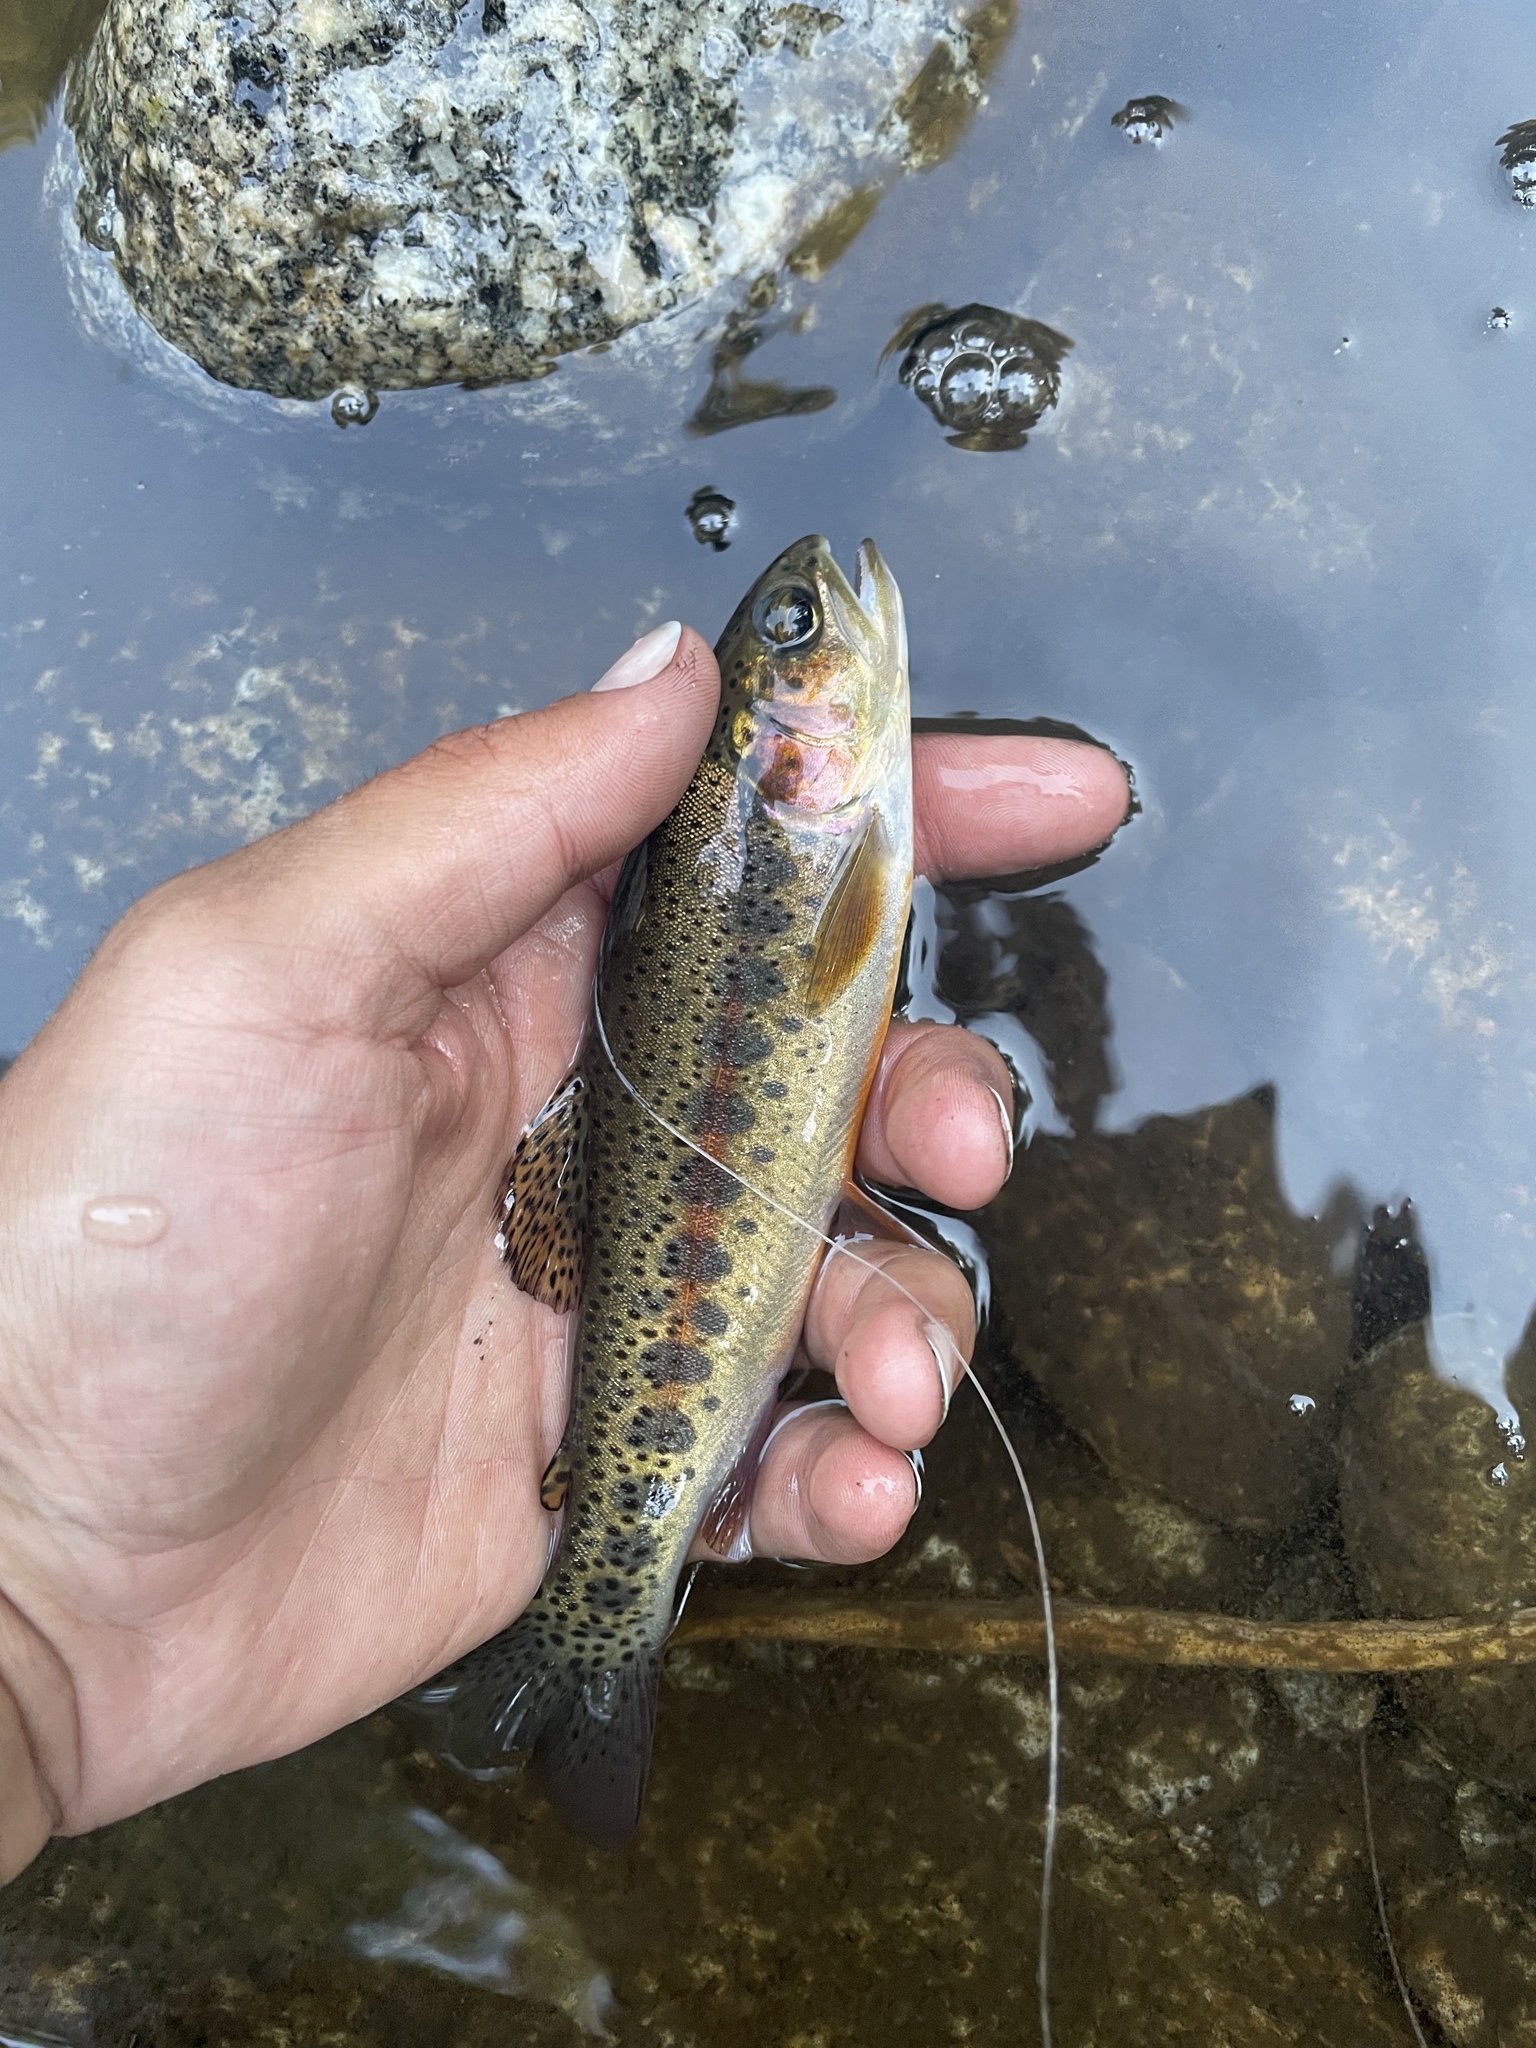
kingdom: Animalia
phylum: Chordata
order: Salmoniformes
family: Salmonidae
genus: Oncorhynchus
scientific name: Oncorhynchus mykiss
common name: Rainbow trout
